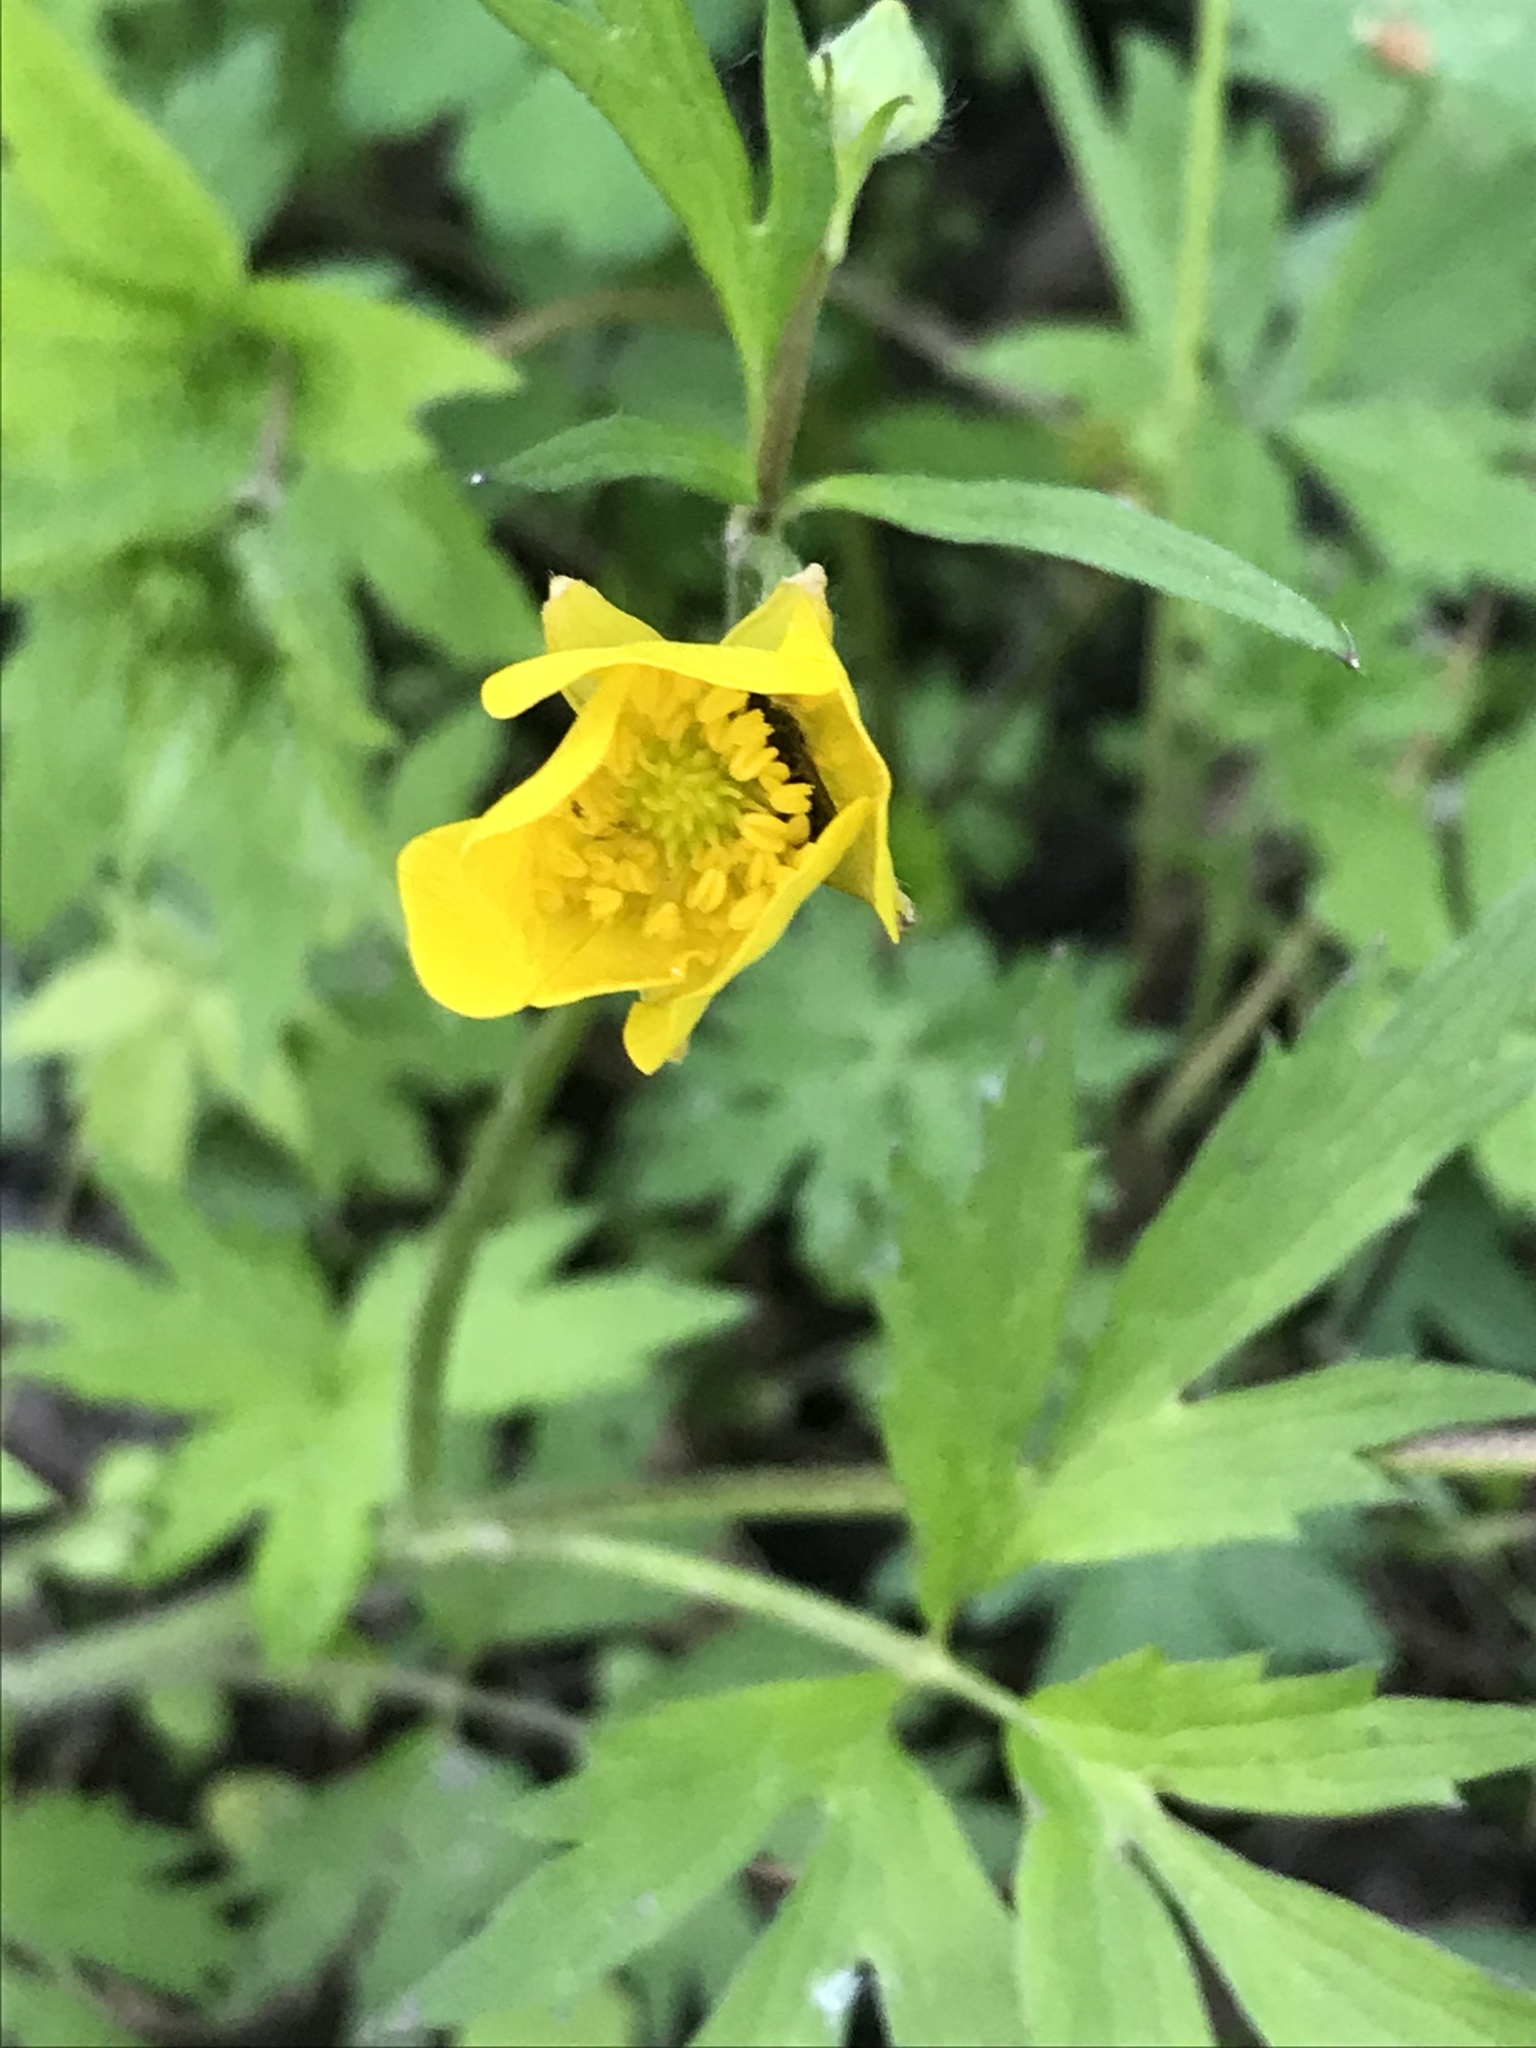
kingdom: Plantae
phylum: Tracheophyta
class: Magnoliopsida
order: Ranunculales
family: Ranunculaceae
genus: Ranunculus
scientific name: Ranunculus hispidus
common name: Bristly buttercup
